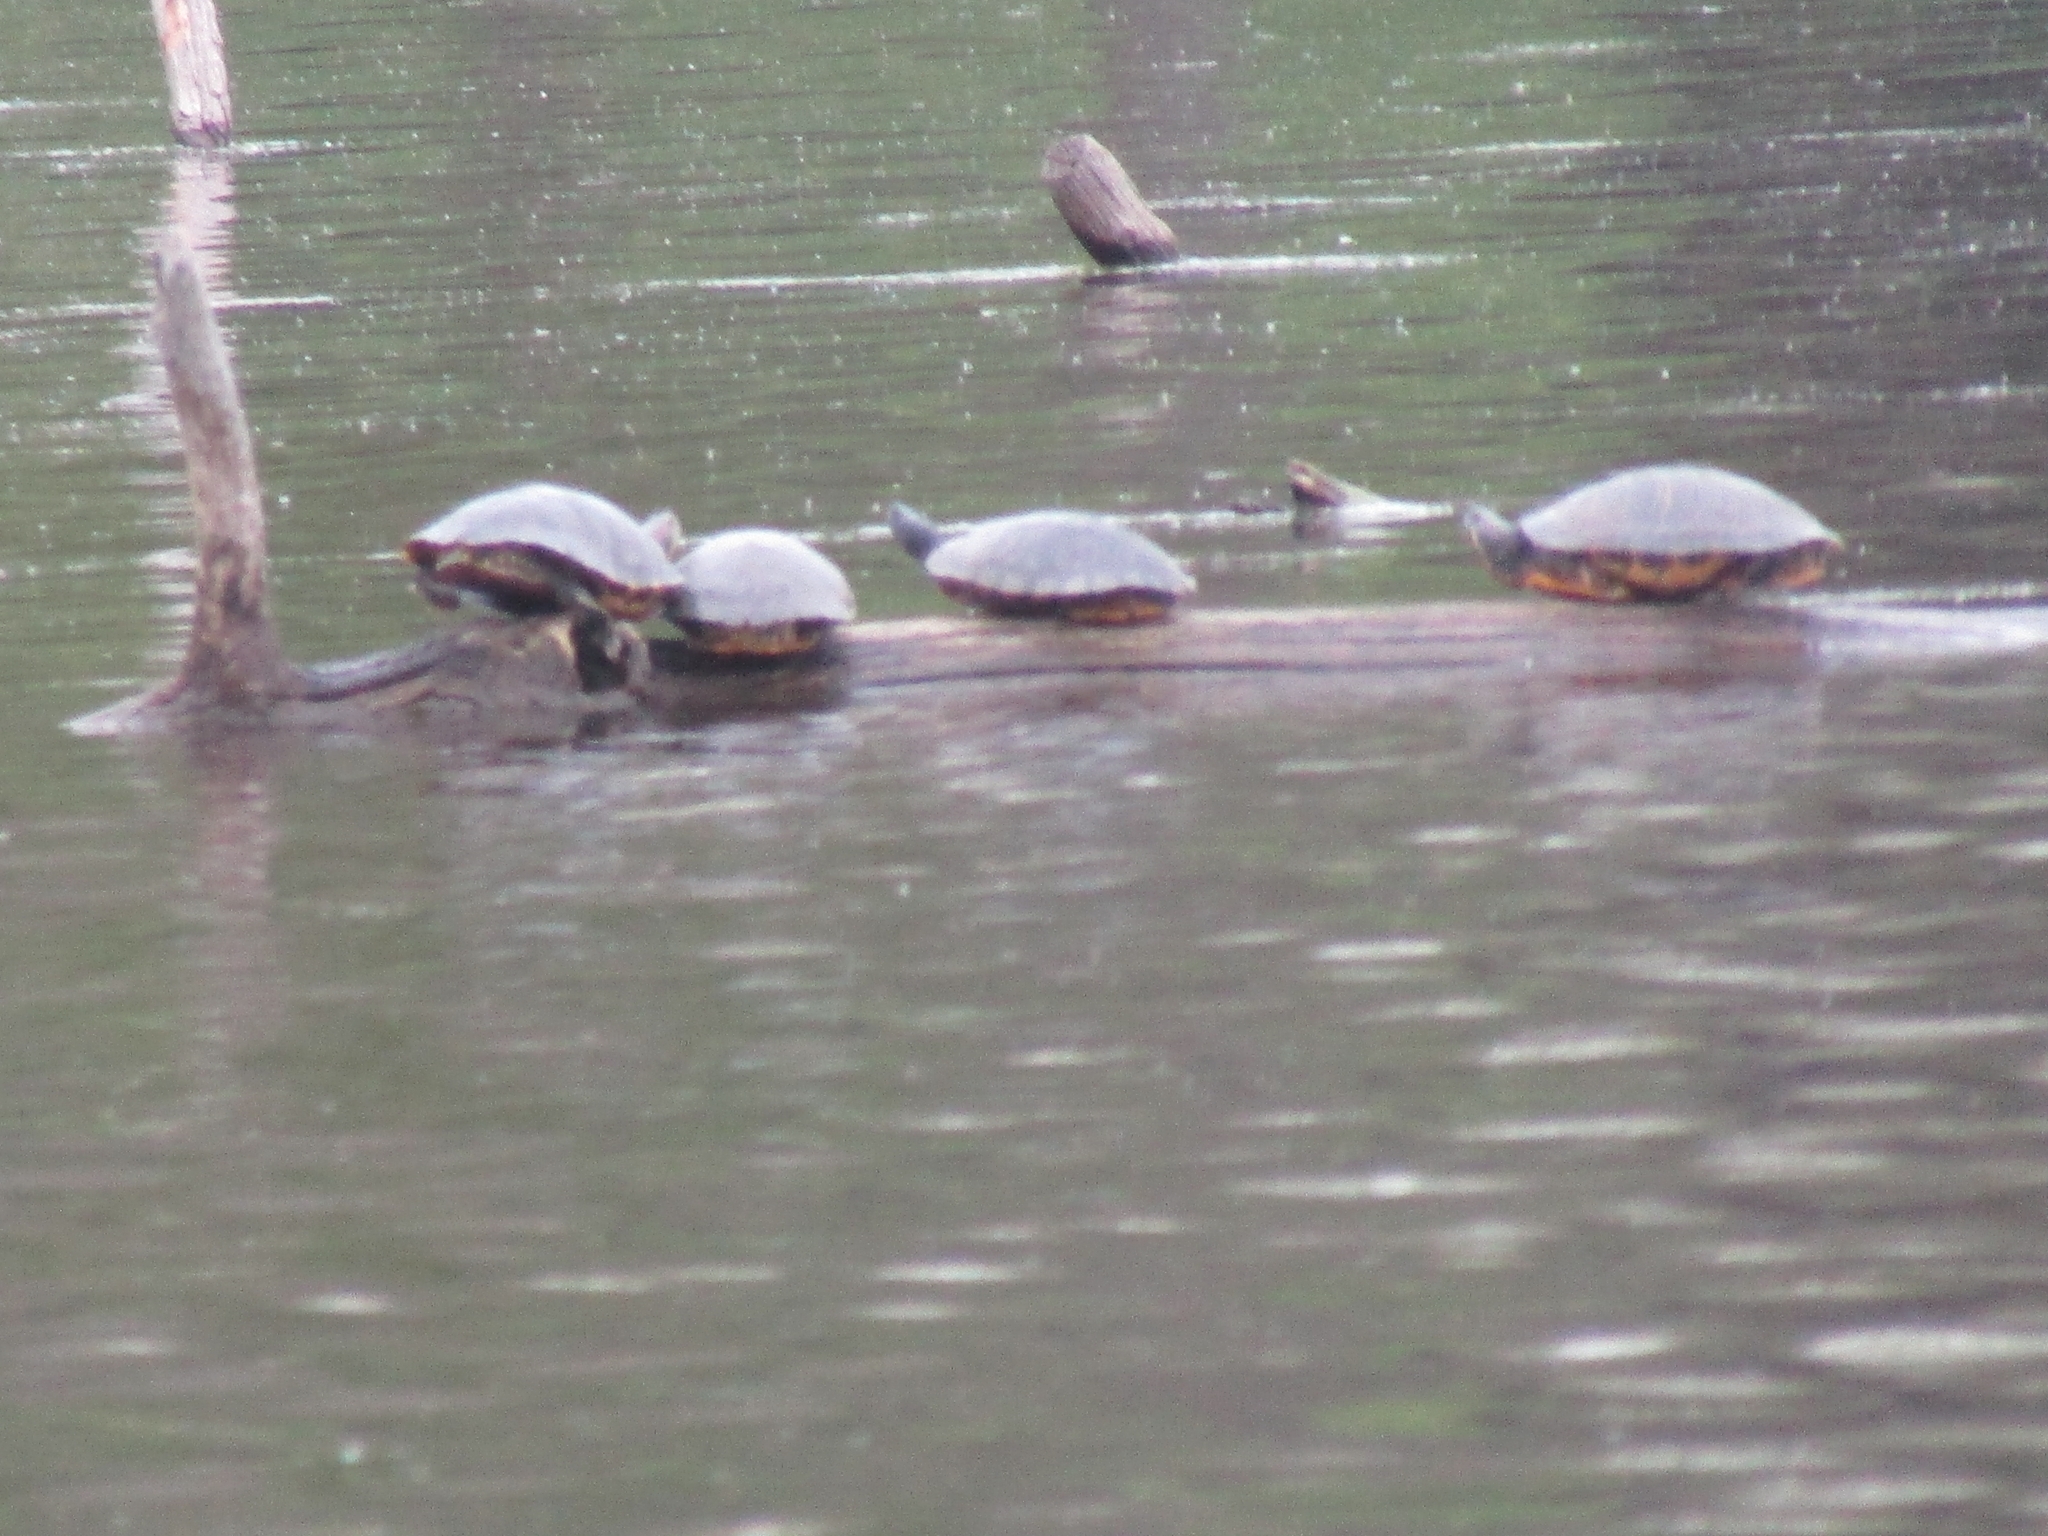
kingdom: Animalia
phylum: Chordata
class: Testudines
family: Emydidae
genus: Trachemys
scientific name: Trachemys scripta
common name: Slider
